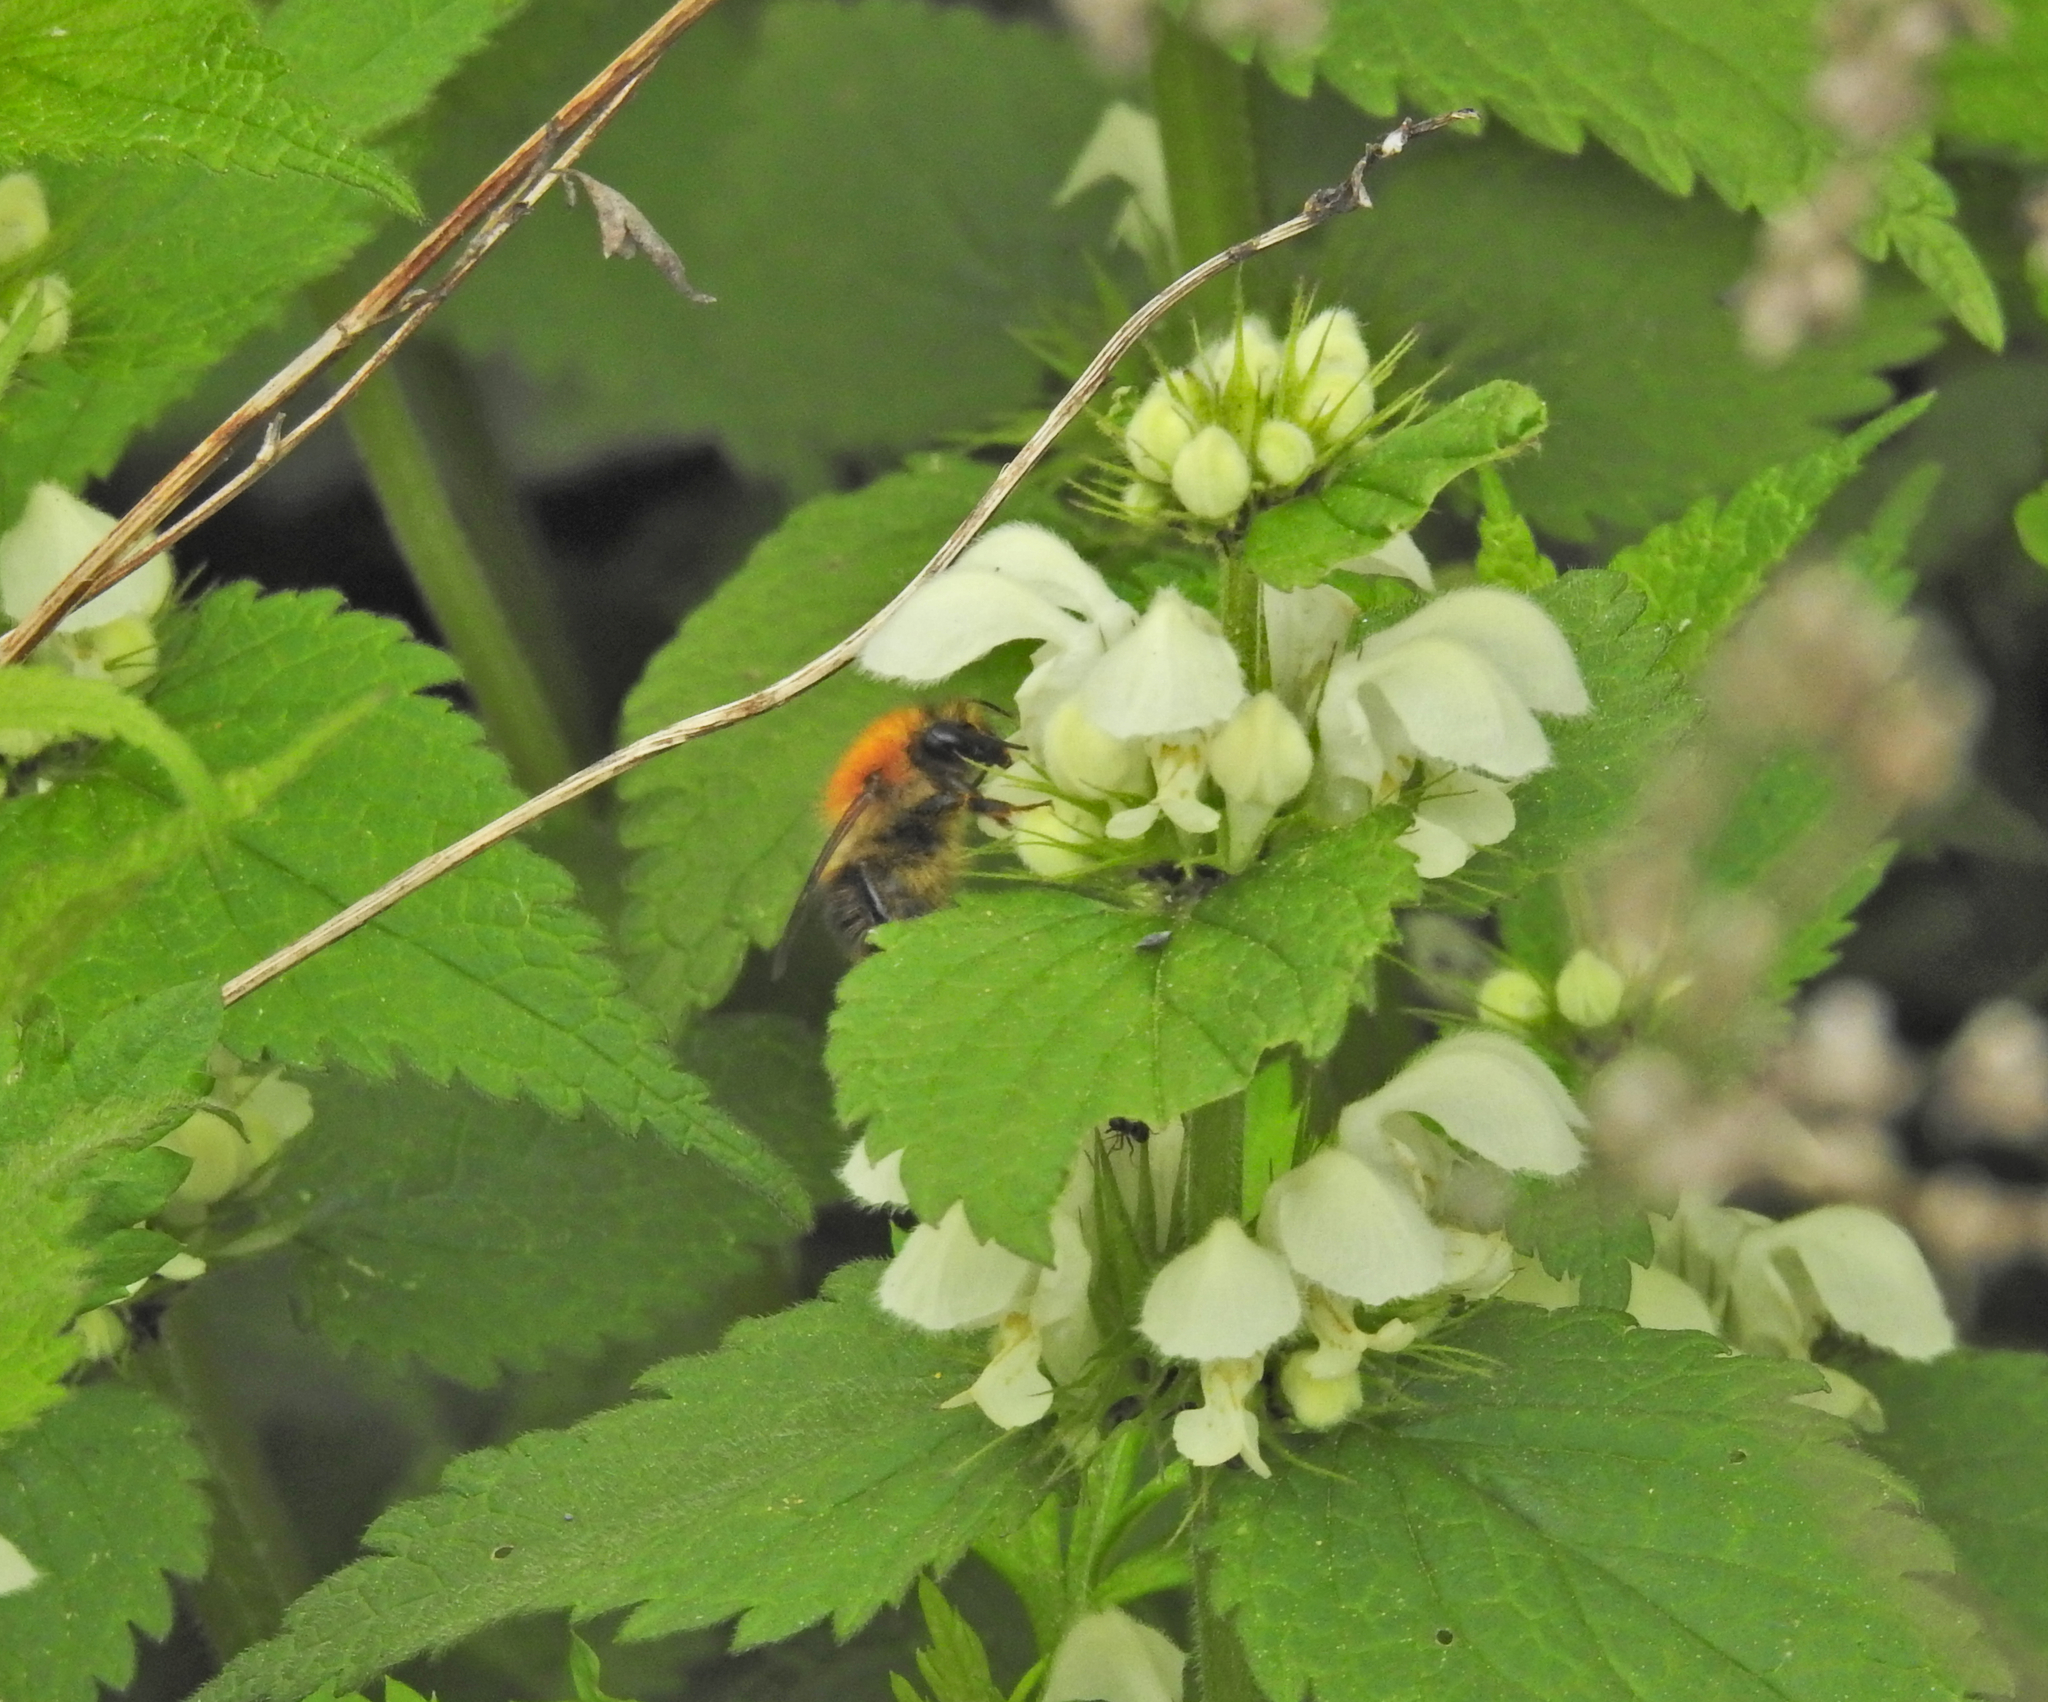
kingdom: Animalia
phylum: Arthropoda
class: Insecta
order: Hymenoptera
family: Apidae
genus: Bombus
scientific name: Bombus pascuorum
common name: Common carder bee
